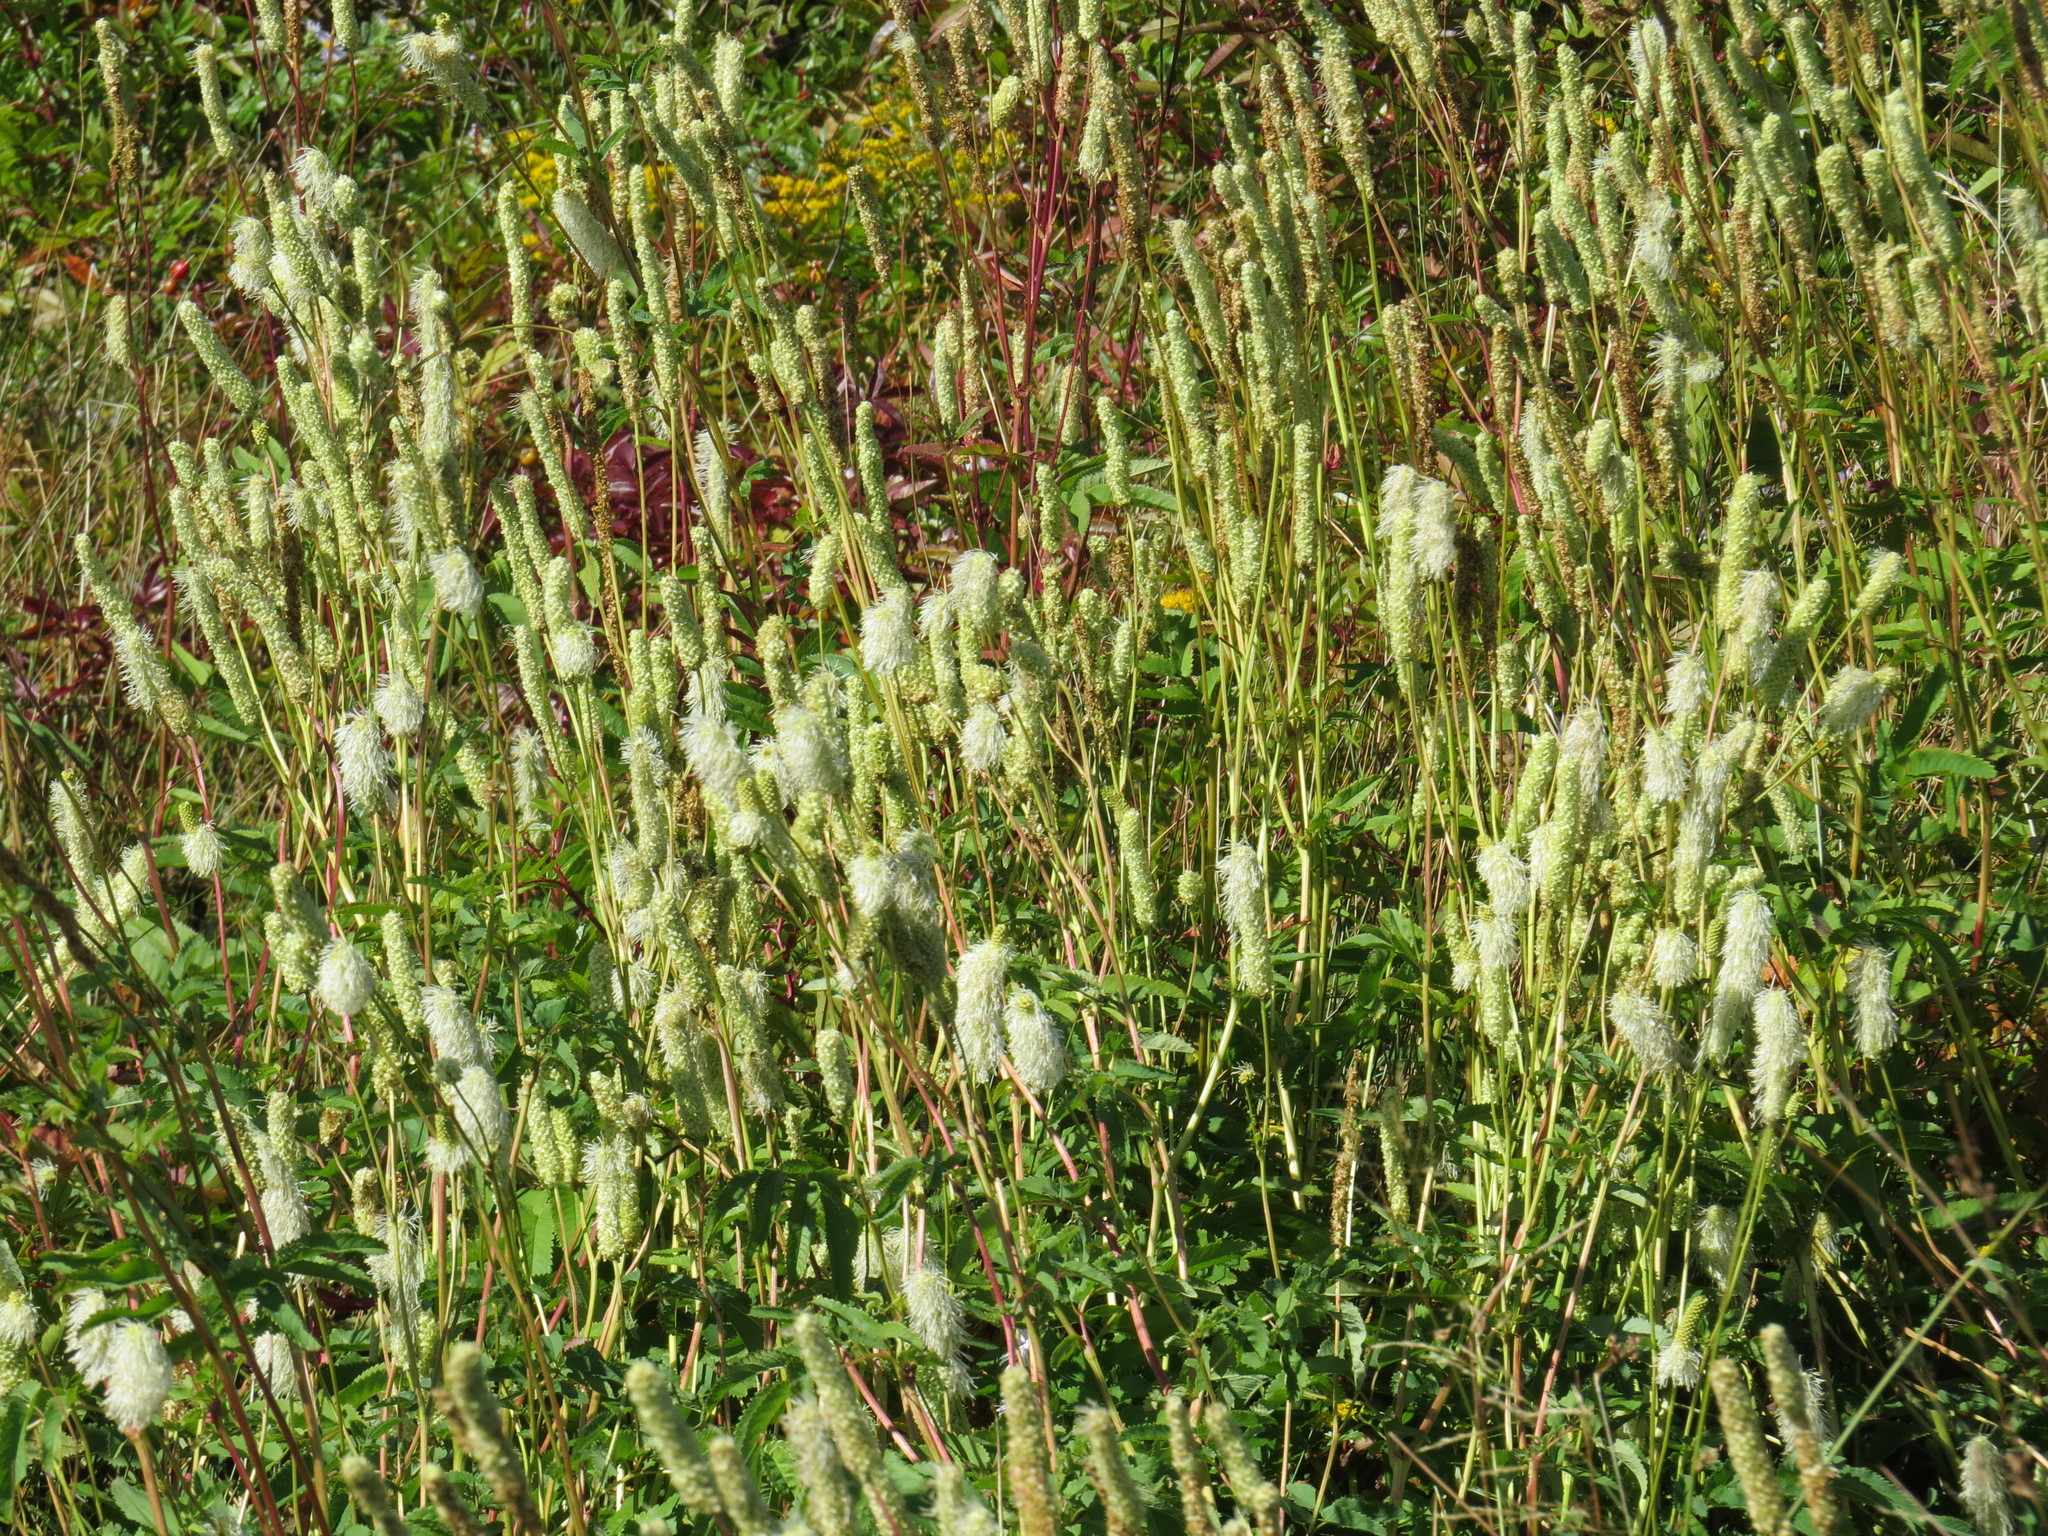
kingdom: Plantae
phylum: Tracheophyta
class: Magnoliopsida
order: Rosales
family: Rosaceae
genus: Sanguisorba
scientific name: Sanguisorba canadensis
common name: White burnet
